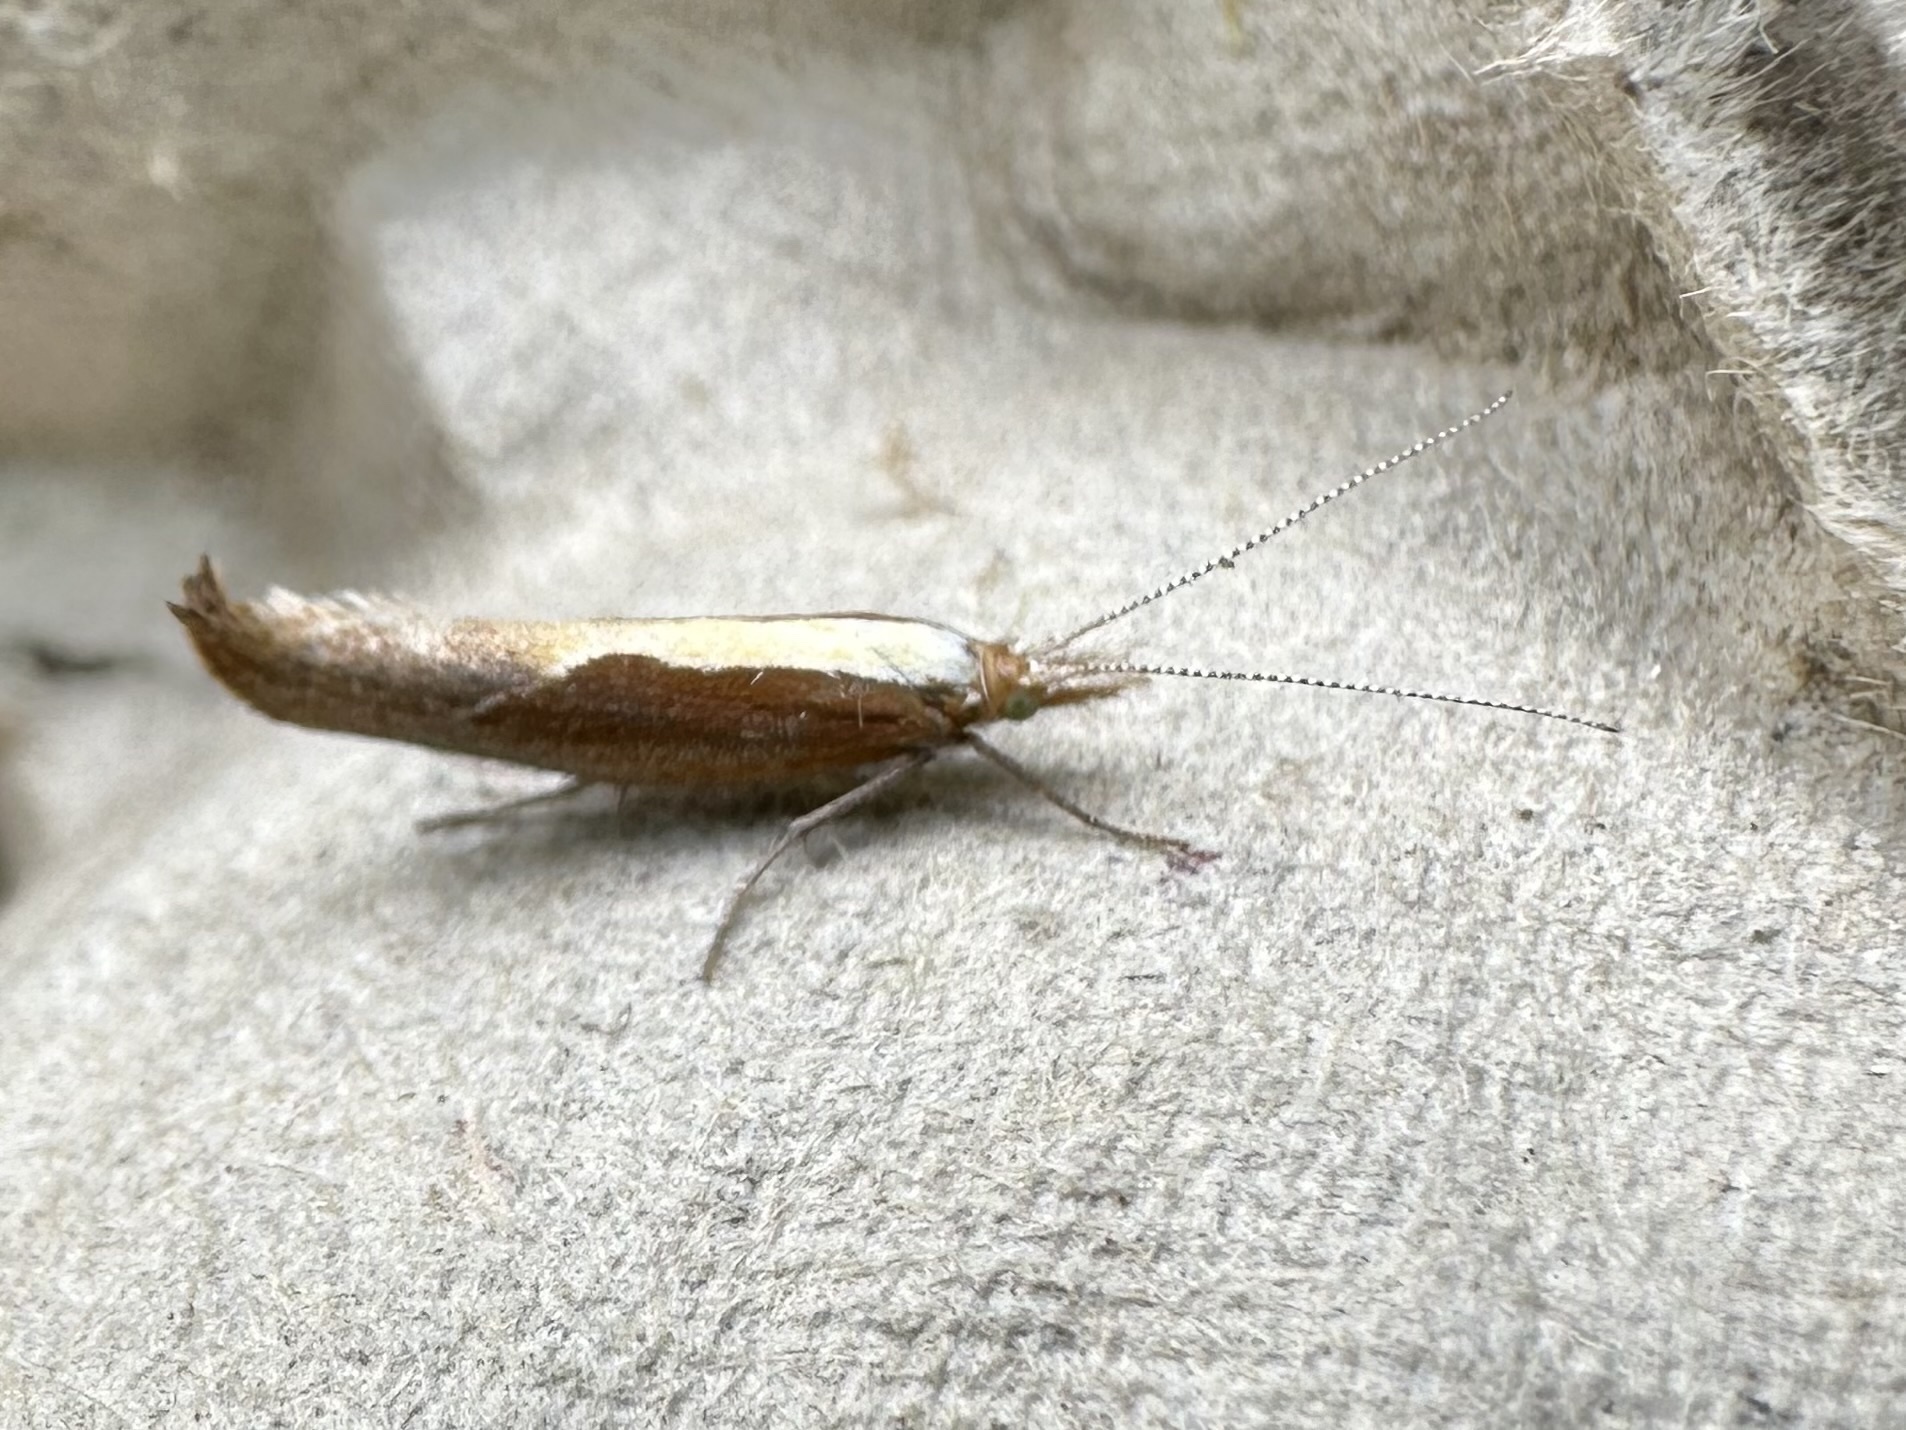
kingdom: Animalia
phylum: Arthropoda
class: Insecta
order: Lepidoptera
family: Ypsolophidae
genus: Ypsolopha
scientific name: Ypsolopha dentella
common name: Honeysuckle moth
